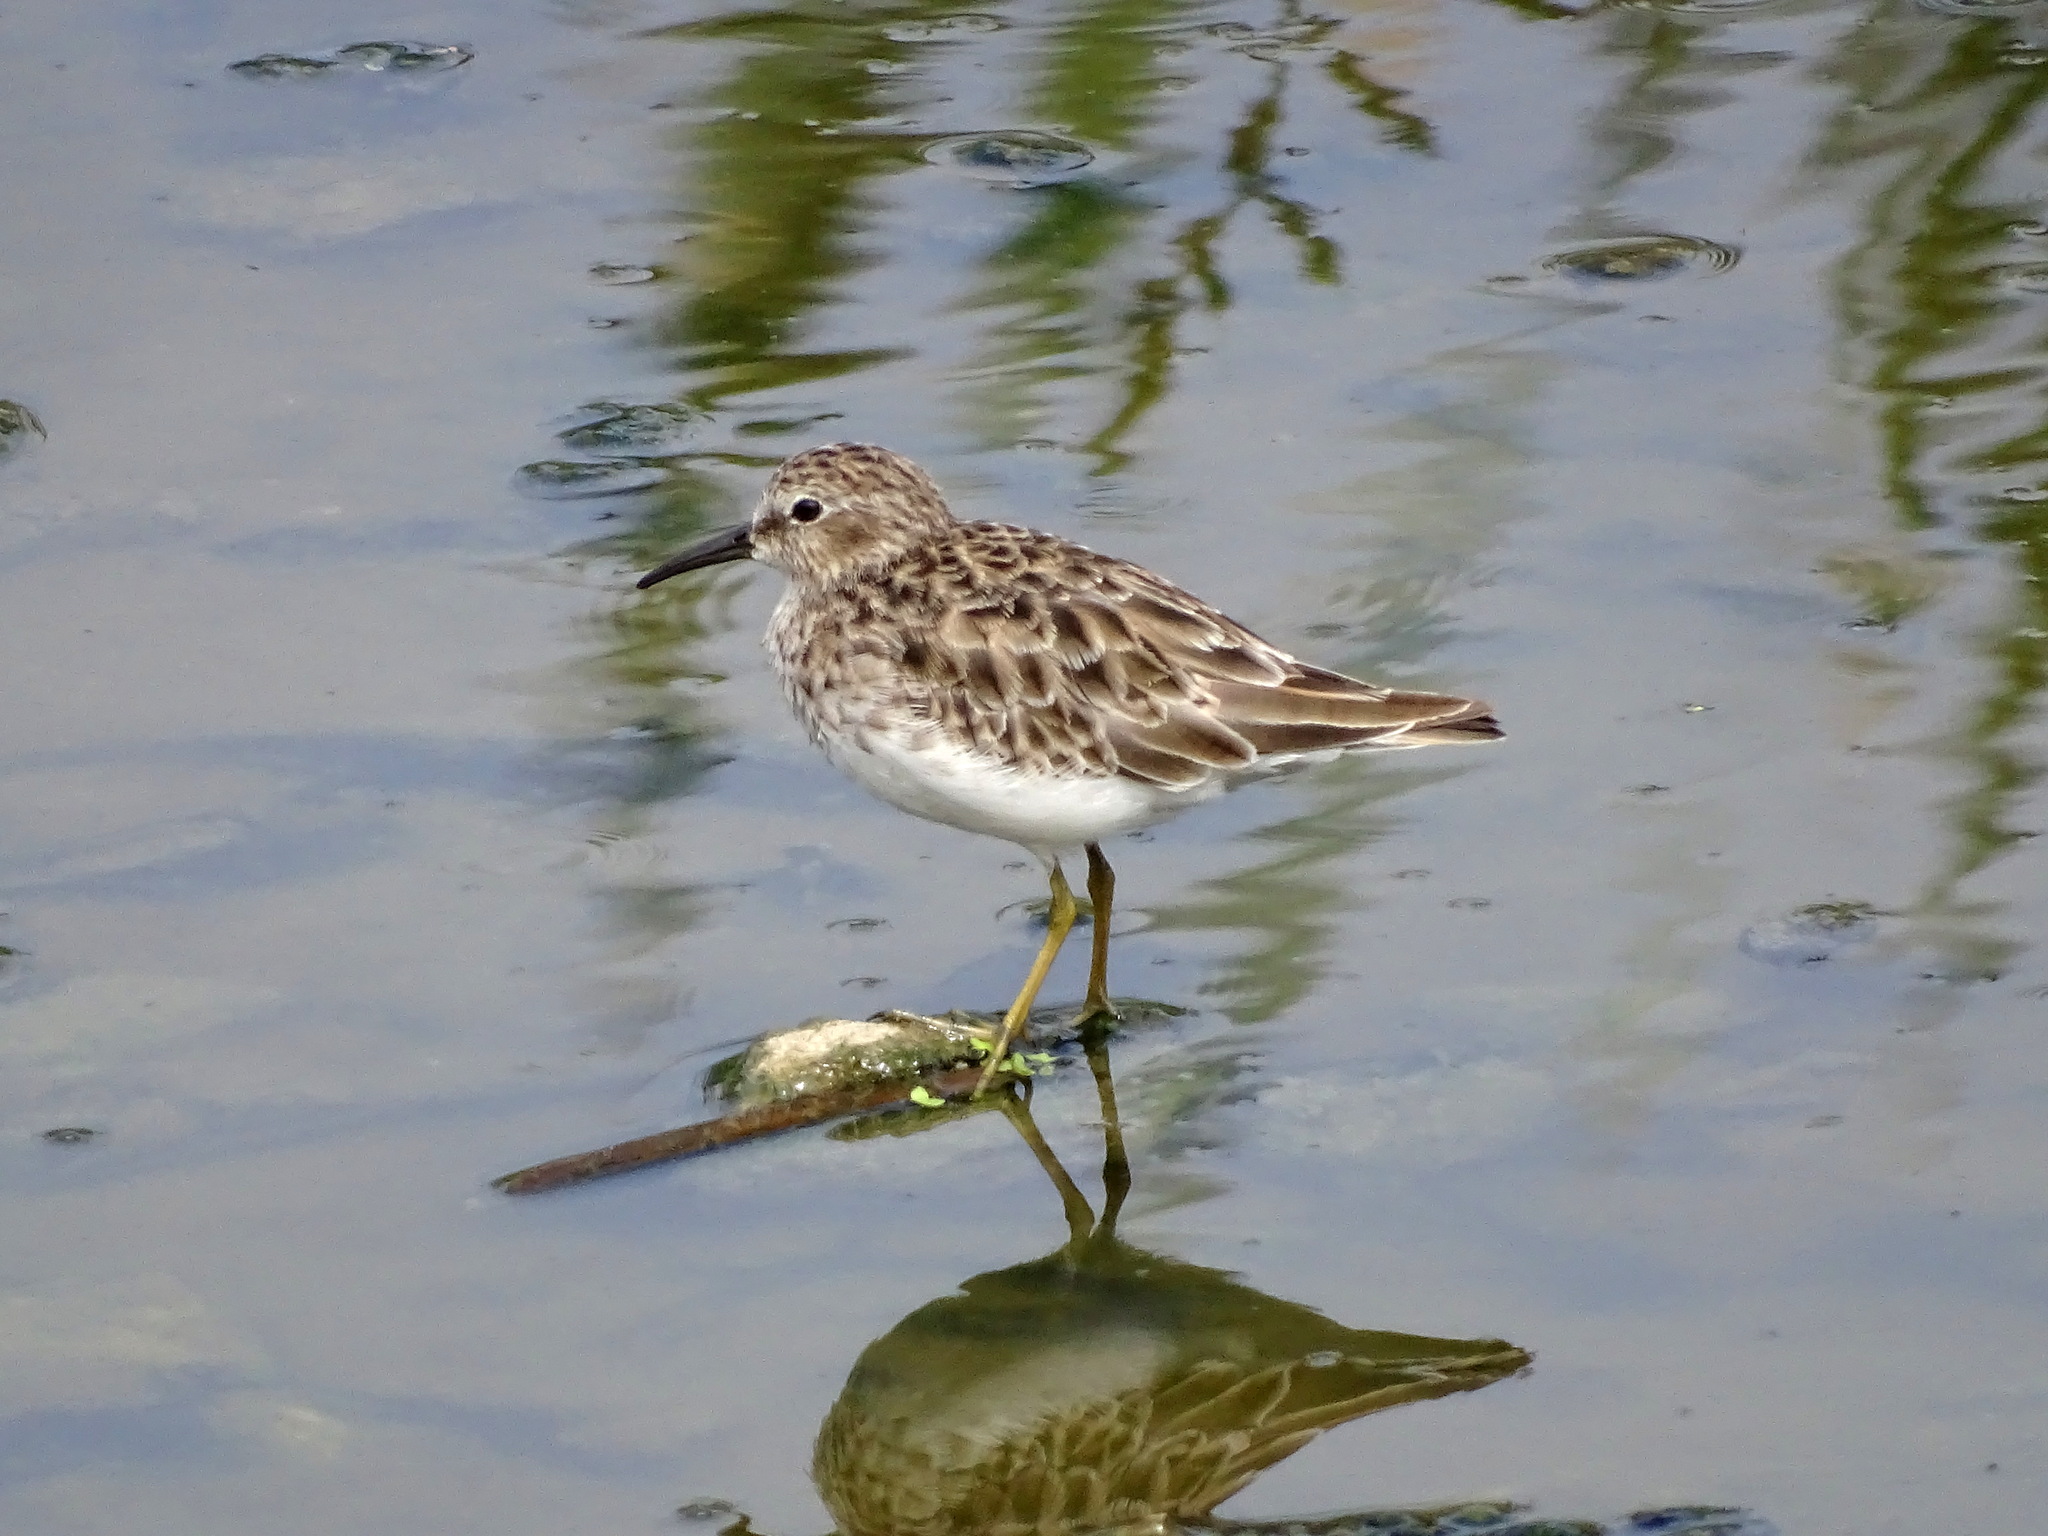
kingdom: Animalia
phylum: Chordata
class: Aves
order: Charadriiformes
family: Scolopacidae
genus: Calidris
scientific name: Calidris minutilla
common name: Least sandpiper
